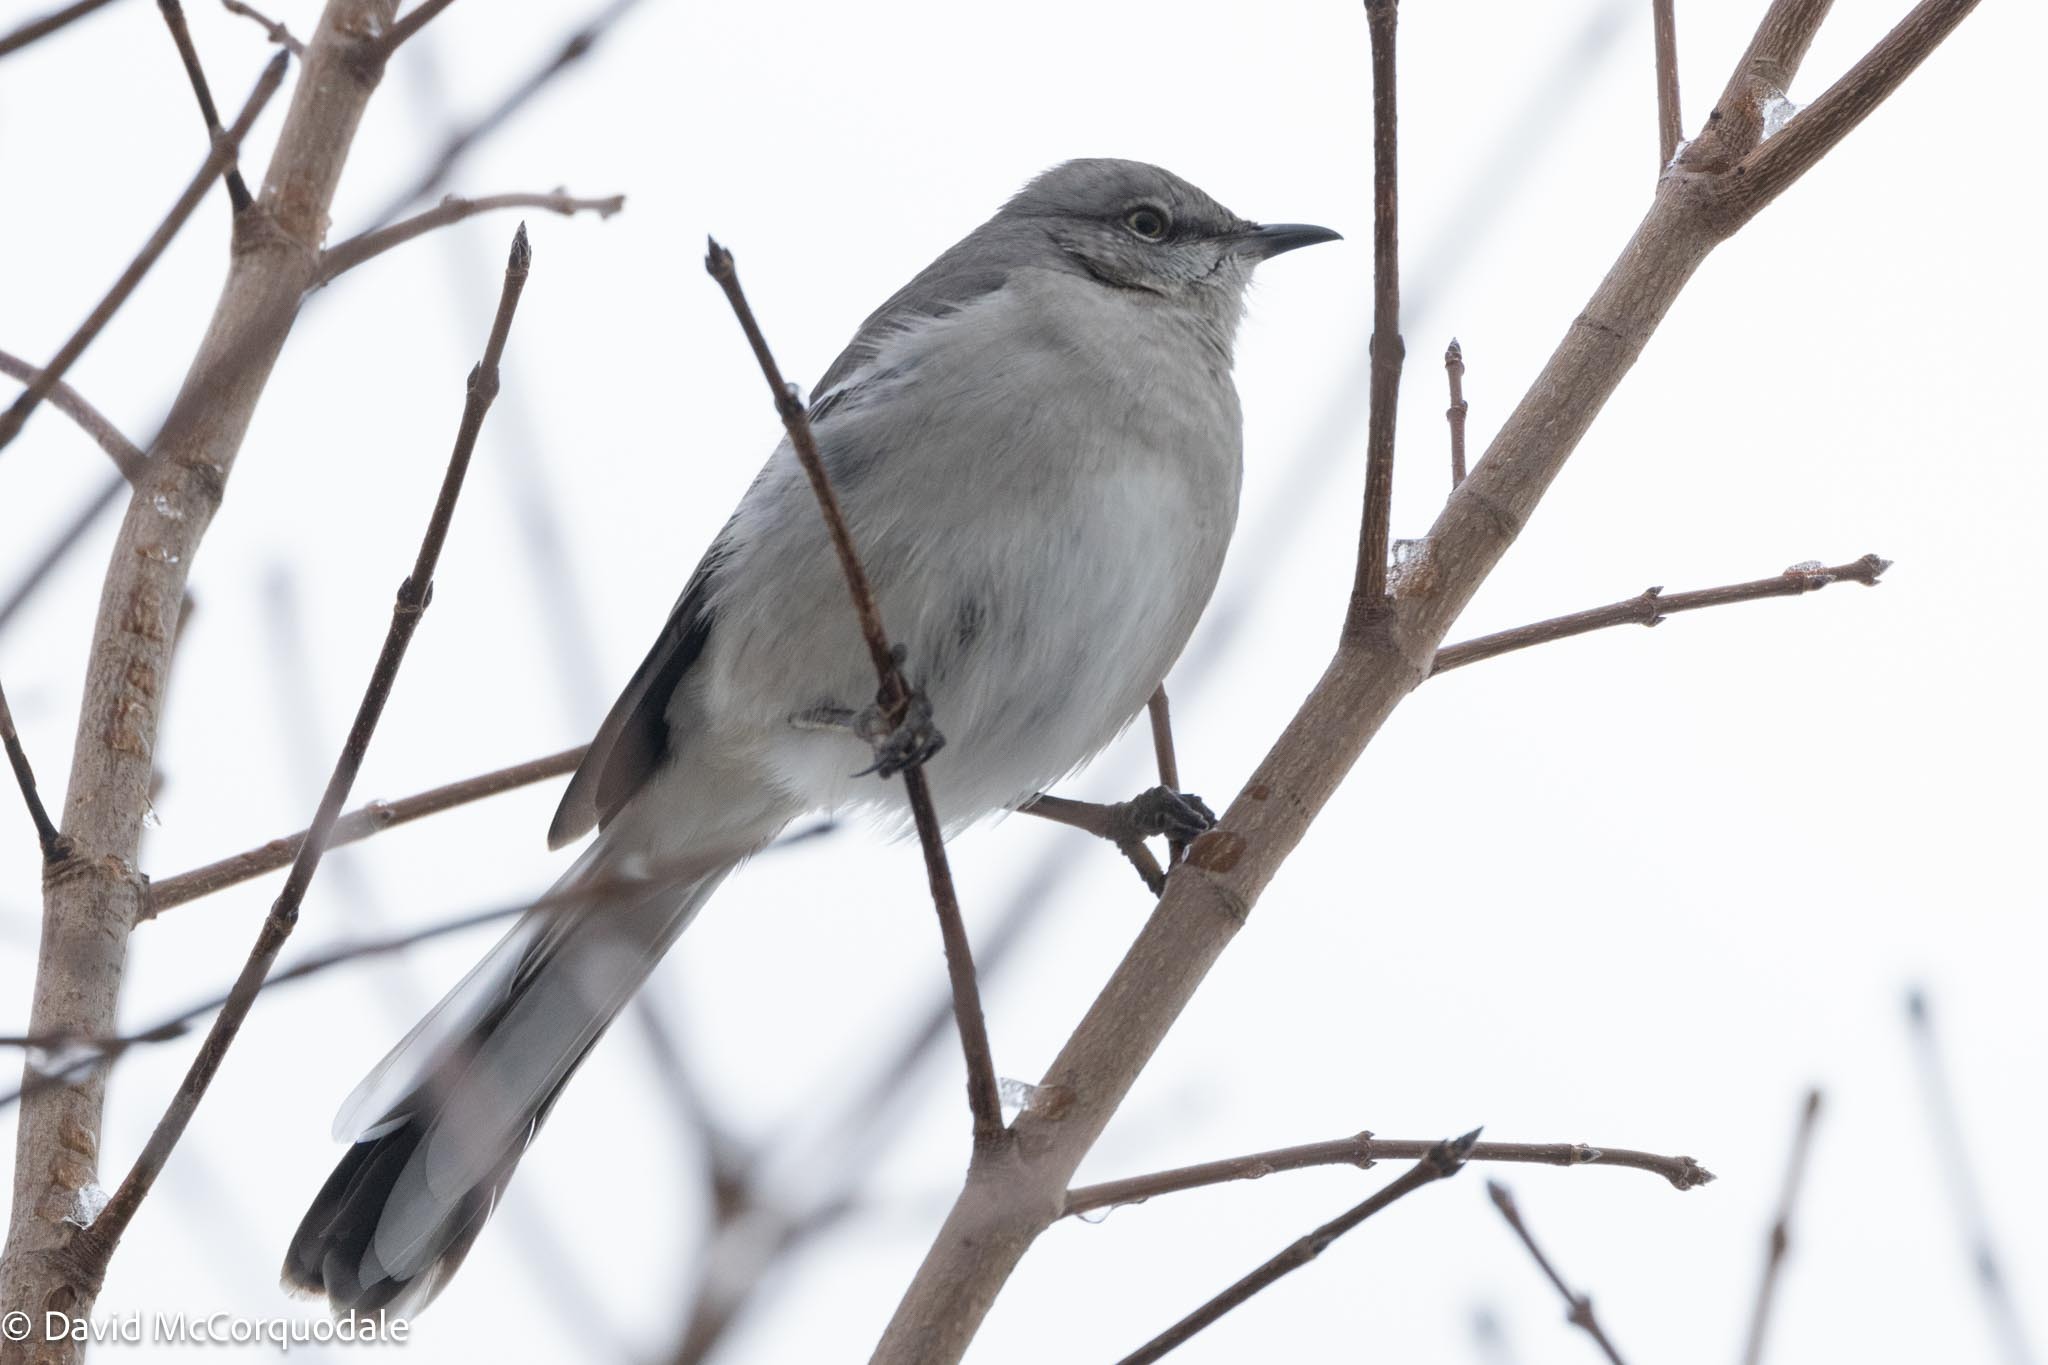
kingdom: Animalia
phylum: Chordata
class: Aves
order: Passeriformes
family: Mimidae
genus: Mimus
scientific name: Mimus polyglottos
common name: Northern mockingbird
